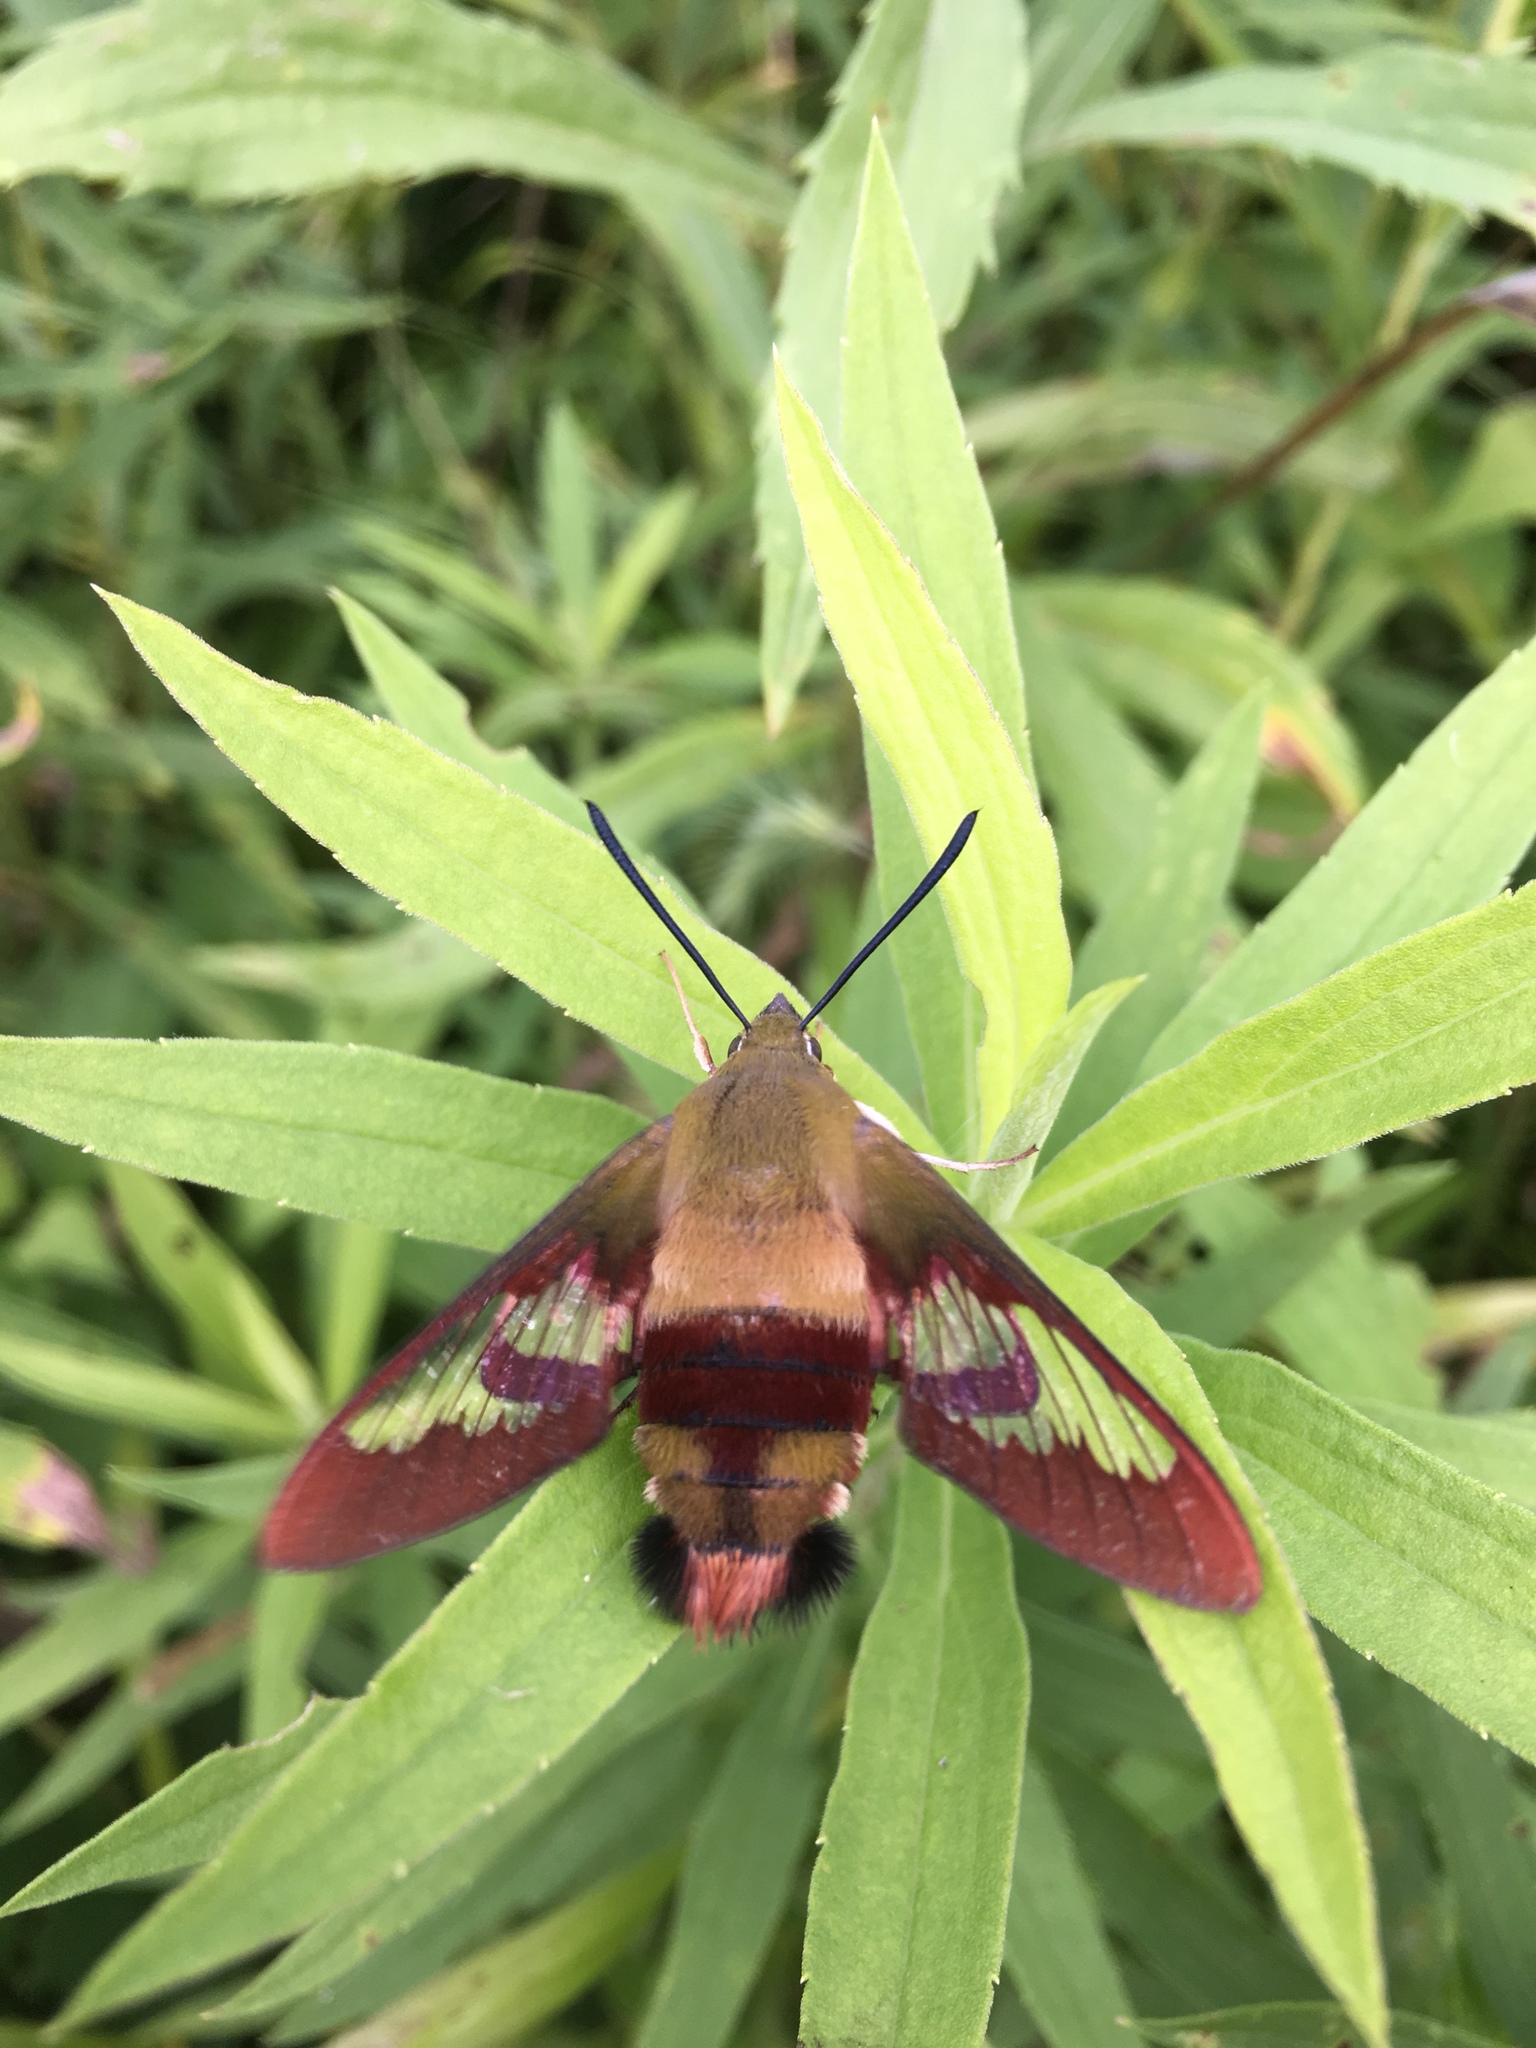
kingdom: Animalia
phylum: Arthropoda
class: Insecta
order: Lepidoptera
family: Sphingidae
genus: Hemaris
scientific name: Hemaris thysbe
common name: Common clear-wing
